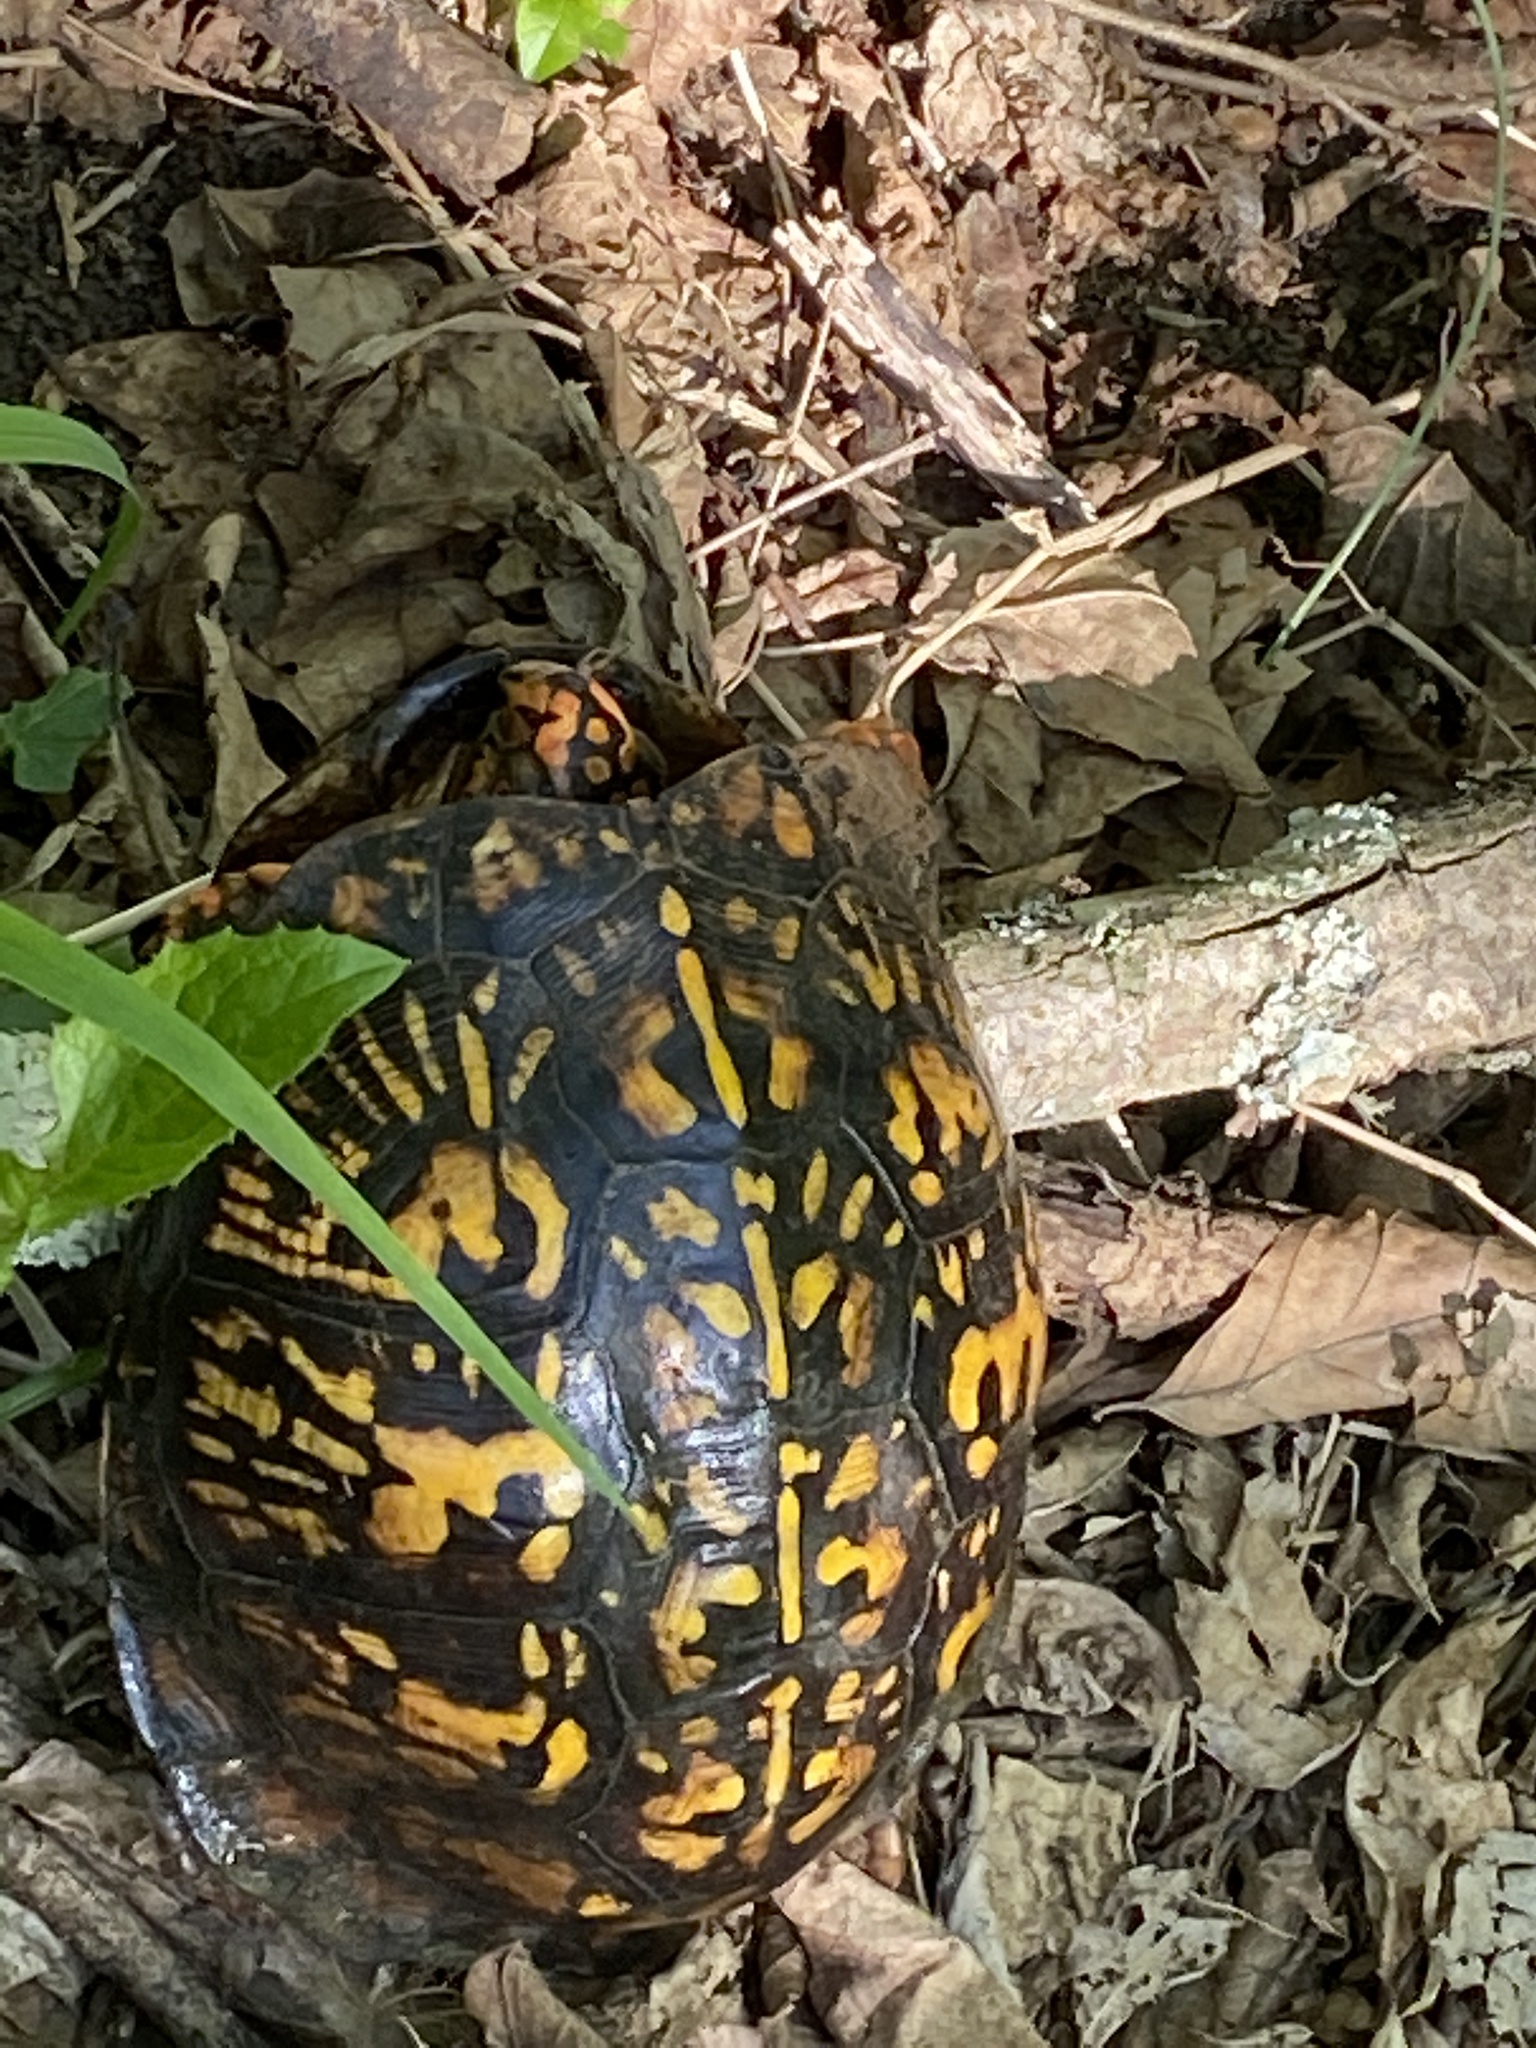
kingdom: Animalia
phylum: Chordata
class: Testudines
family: Emydidae
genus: Terrapene
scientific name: Terrapene carolina
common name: Common box turtle
